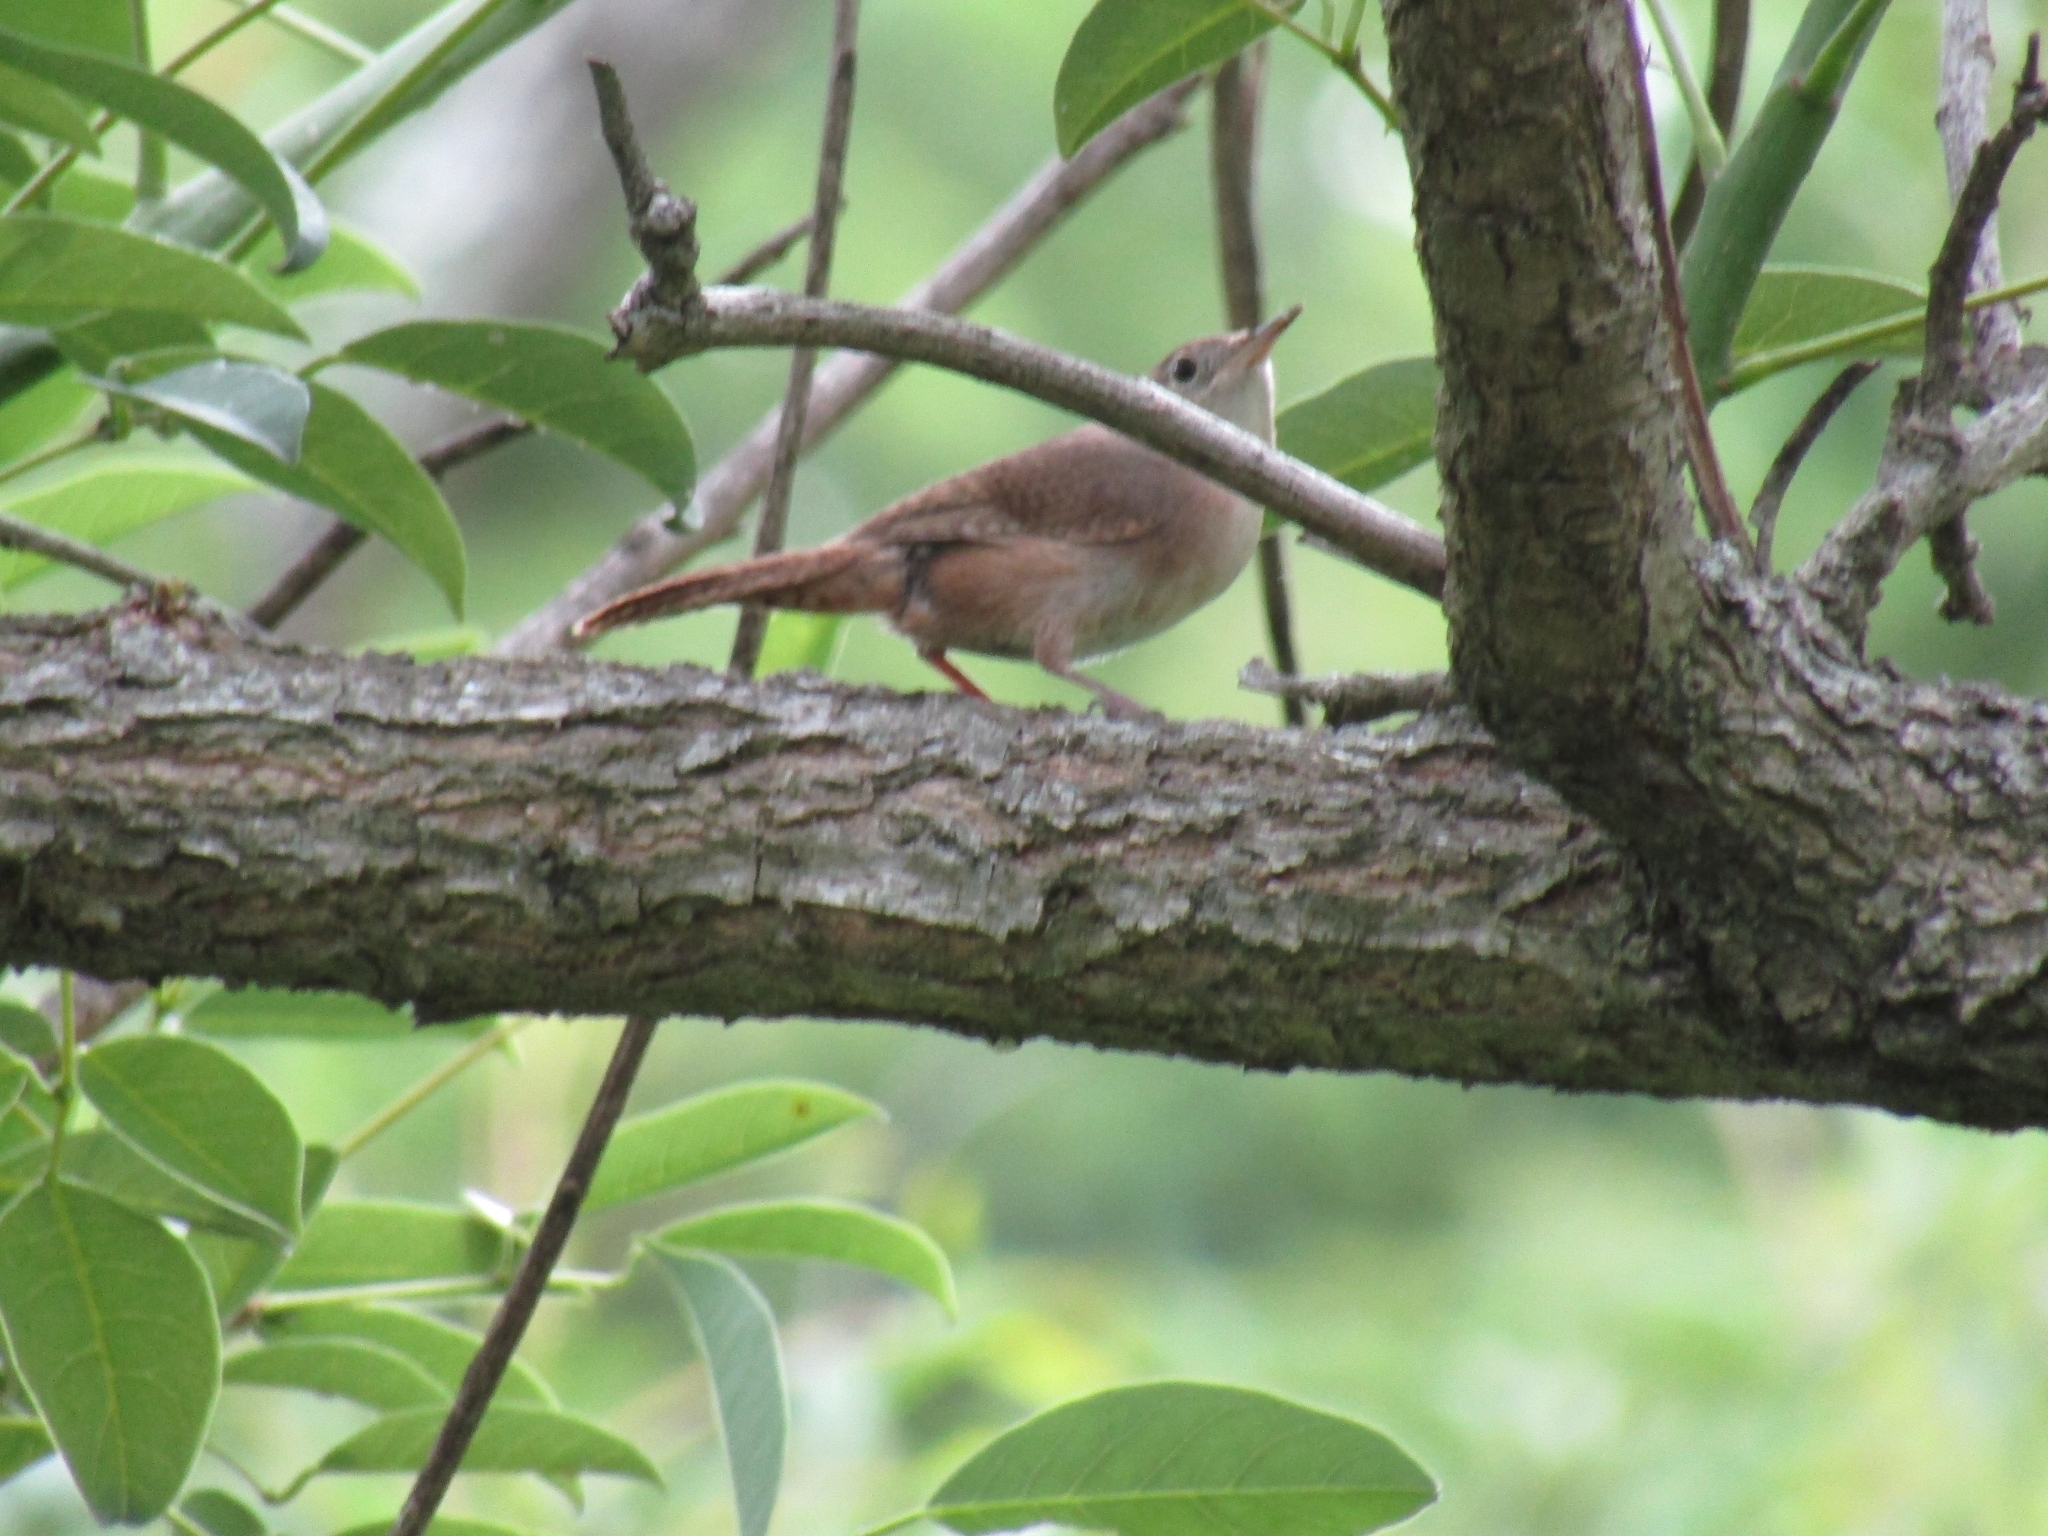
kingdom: Animalia
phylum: Chordata
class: Aves
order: Passeriformes
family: Troglodytidae
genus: Troglodytes
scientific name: Troglodytes aedon
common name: House wren
